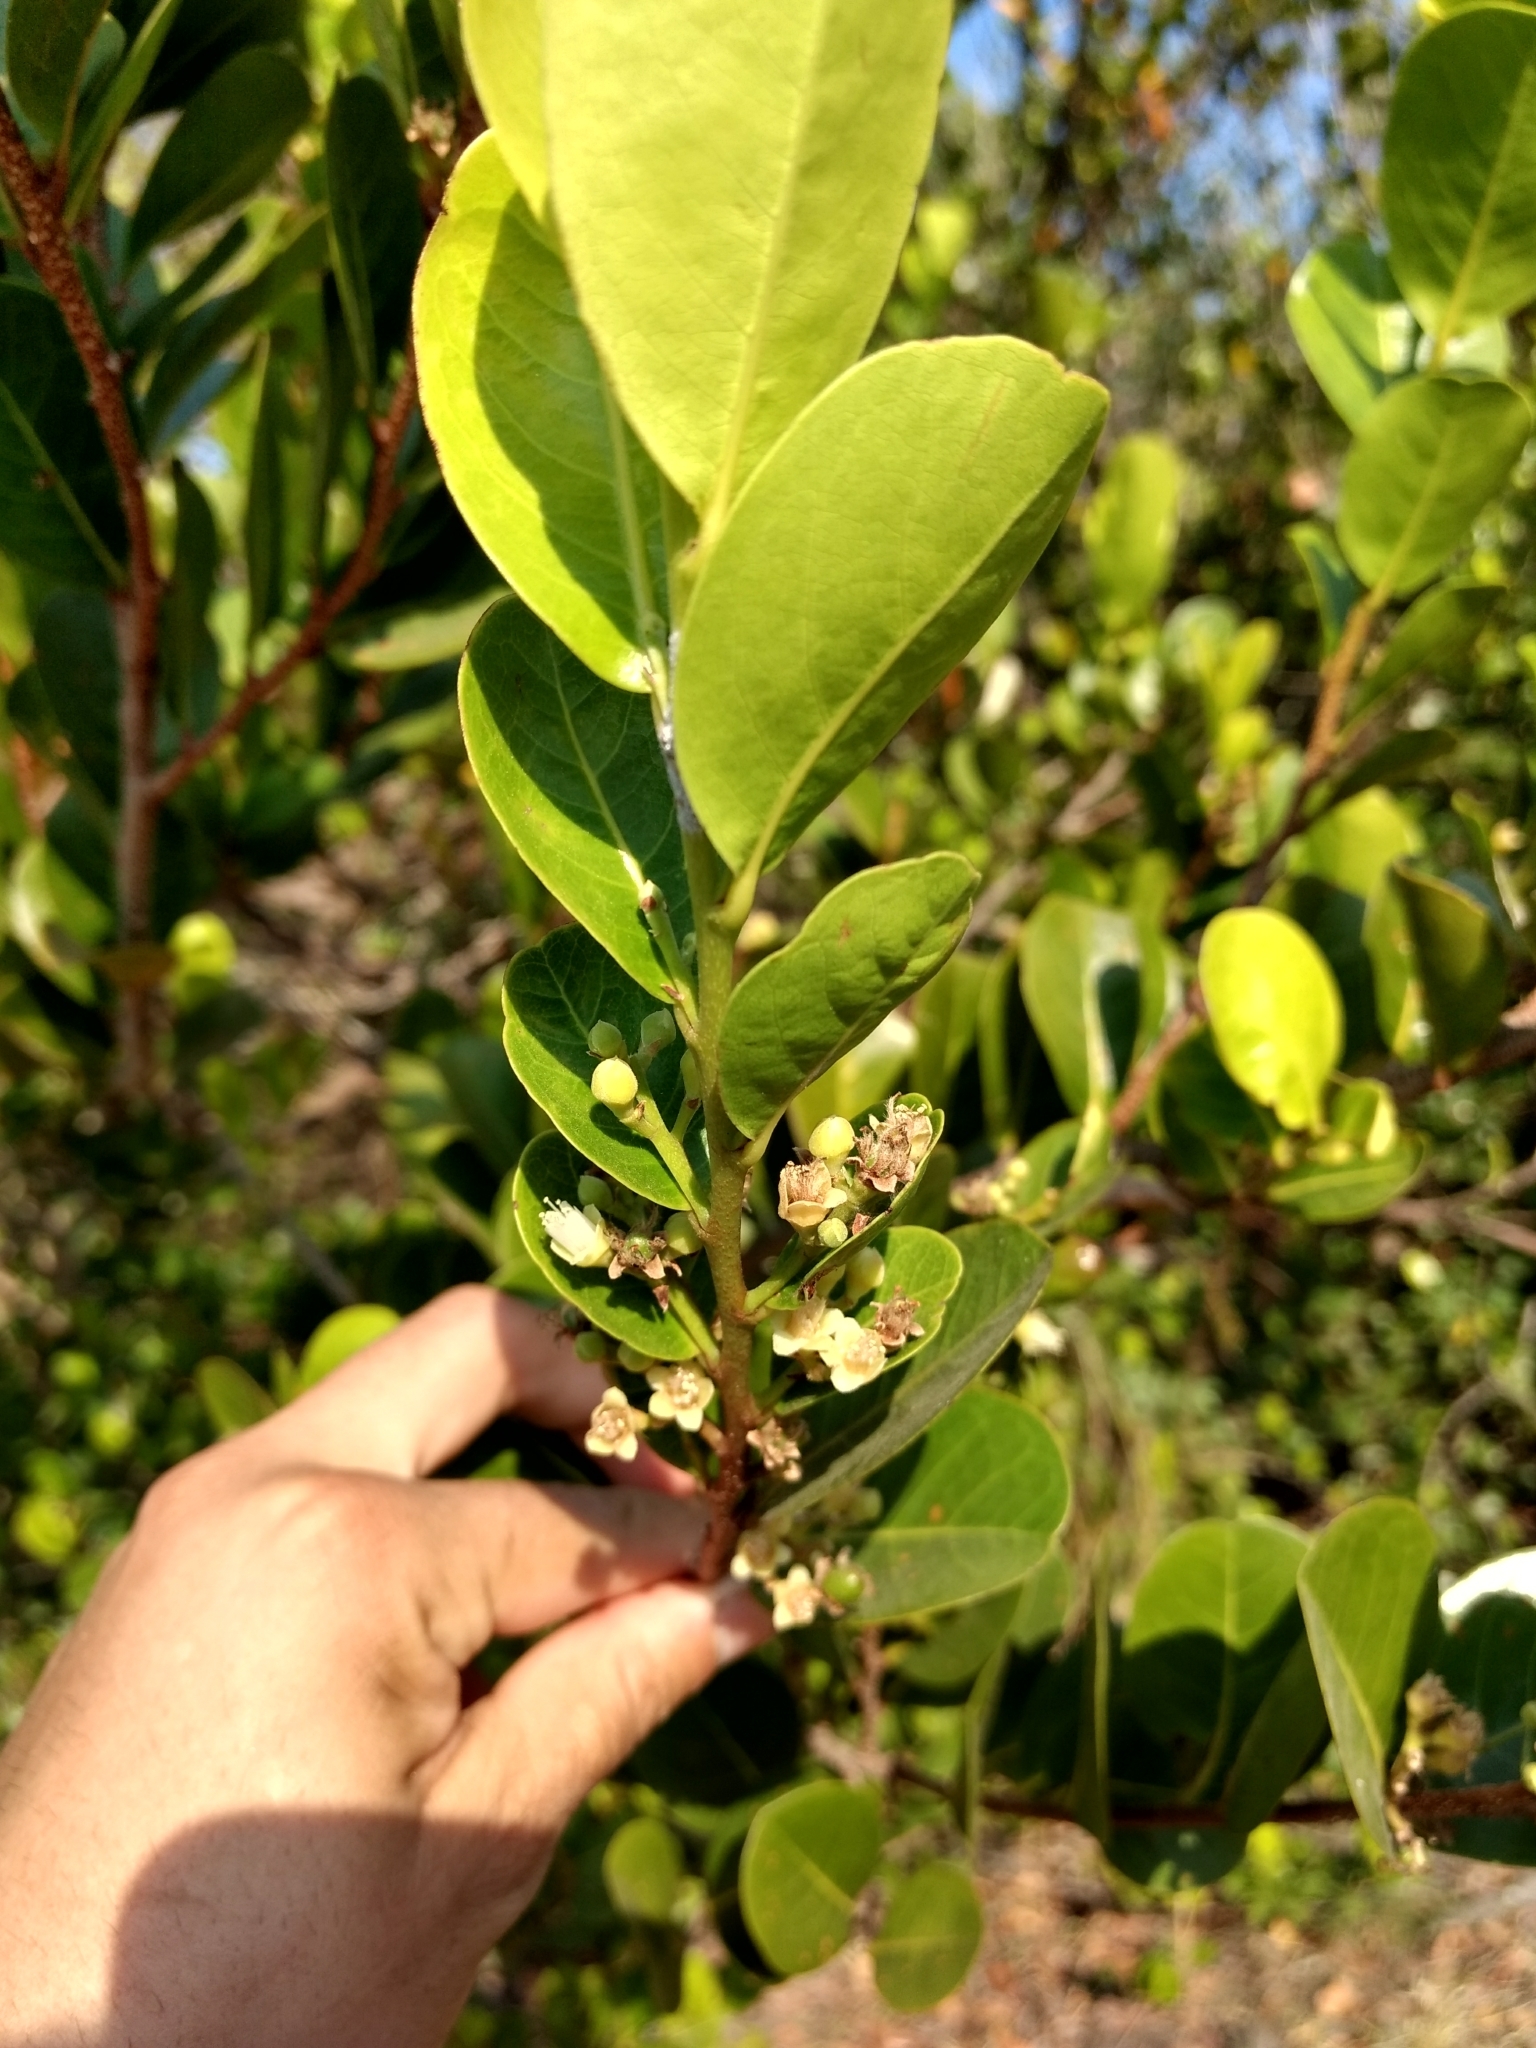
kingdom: Plantae
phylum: Tracheophyta
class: Magnoliopsida
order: Myrtales
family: Combretaceae
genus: Laguncularia
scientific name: Laguncularia racemosa
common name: White mangrove
